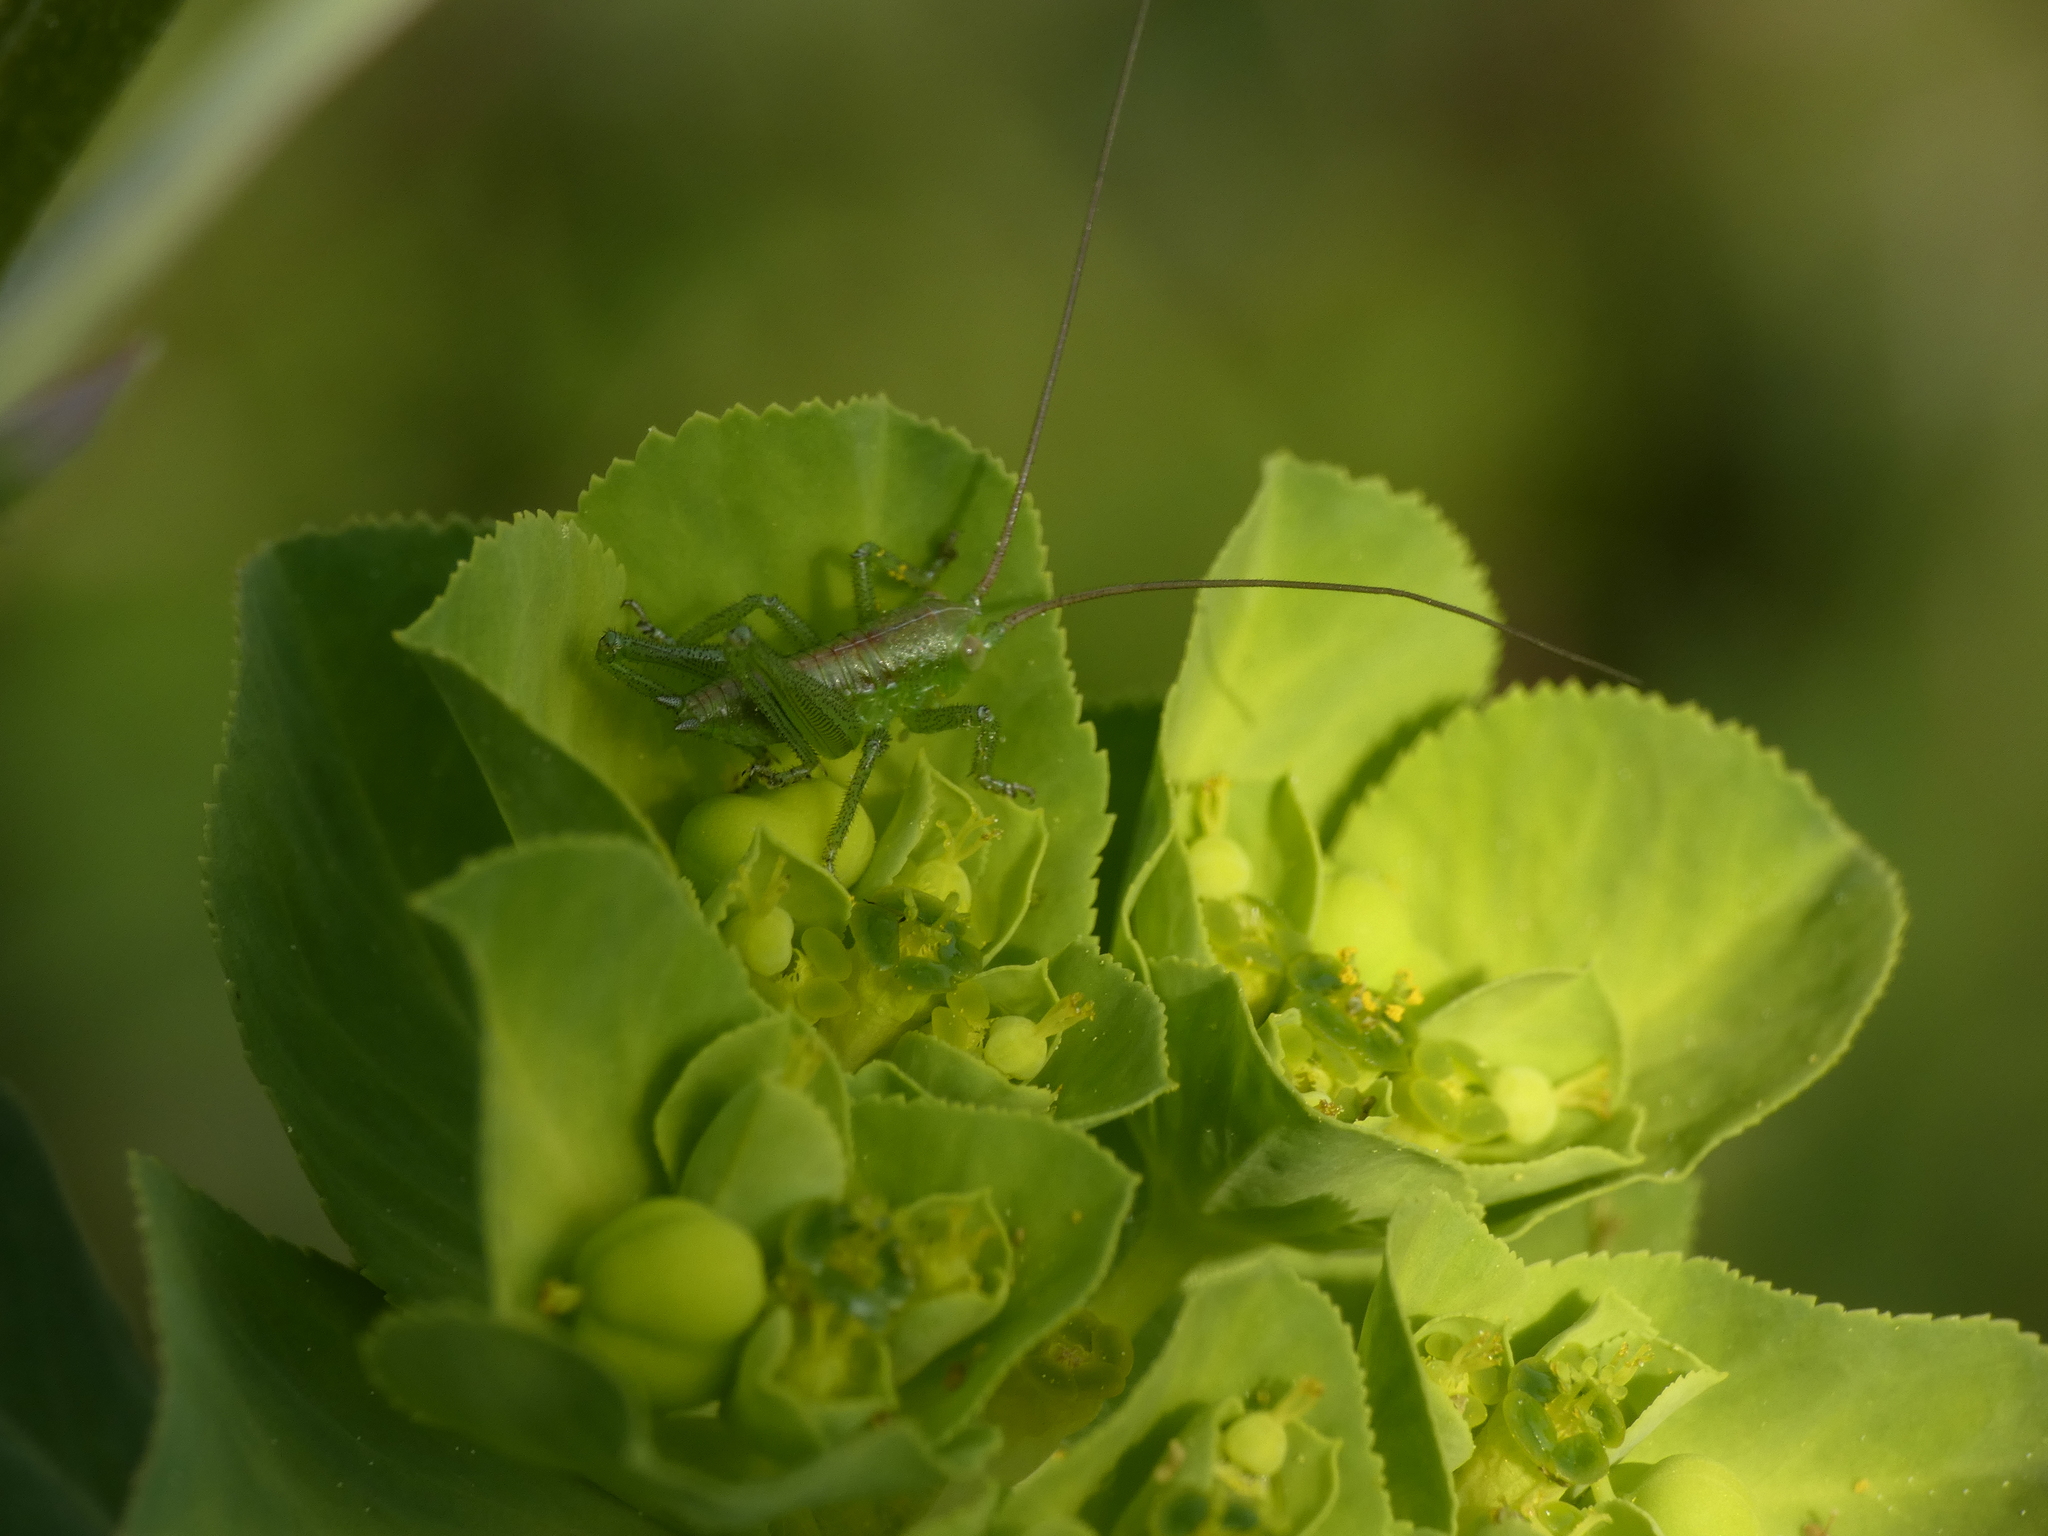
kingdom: Animalia
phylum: Arthropoda
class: Insecta
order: Orthoptera
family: Tettigoniidae
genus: Tettigonia
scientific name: Tettigonia viridissima
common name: Great green bush-cricket
